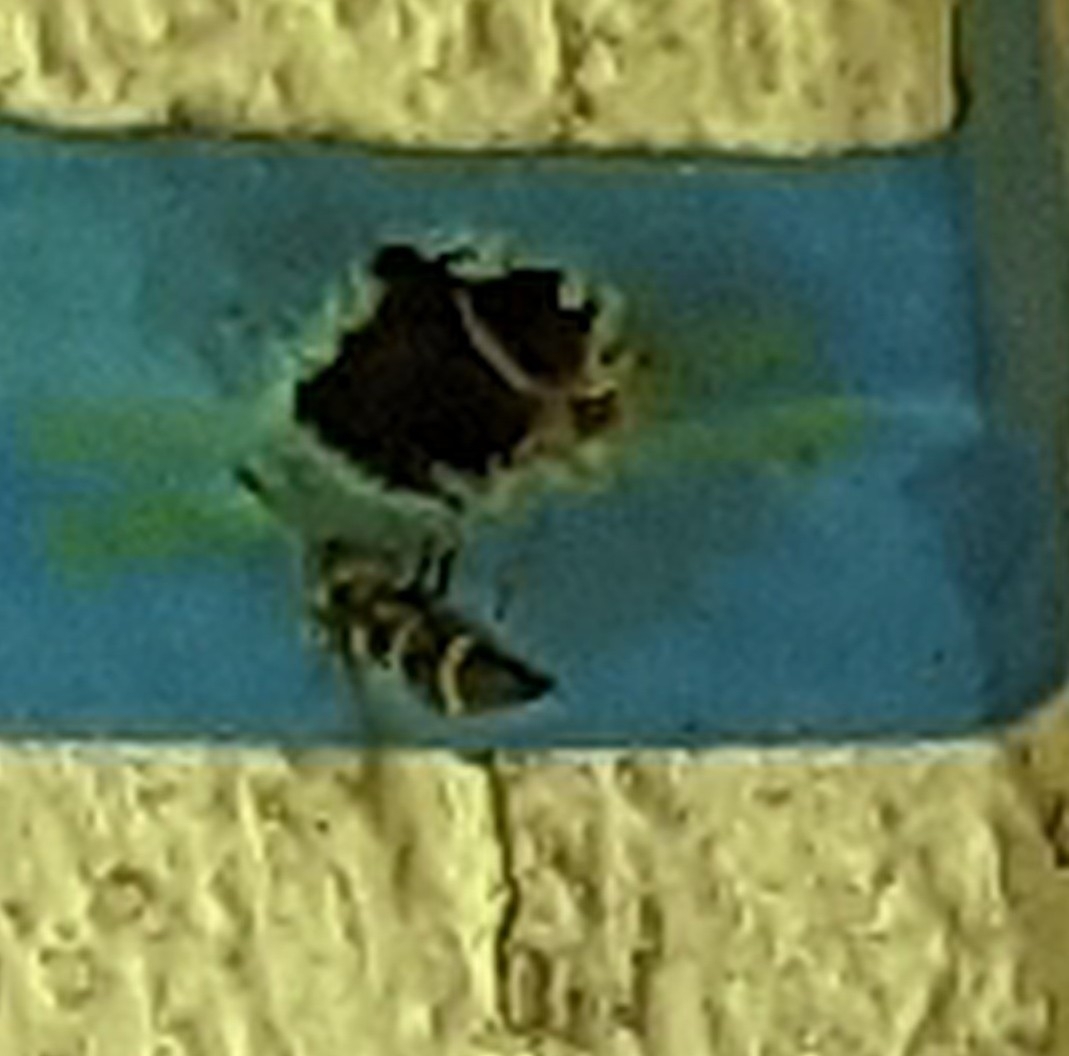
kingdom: Animalia
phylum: Arthropoda
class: Insecta
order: Hymenoptera
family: Eumenidae
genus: Parancistrocerus
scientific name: Parancistrocerus
